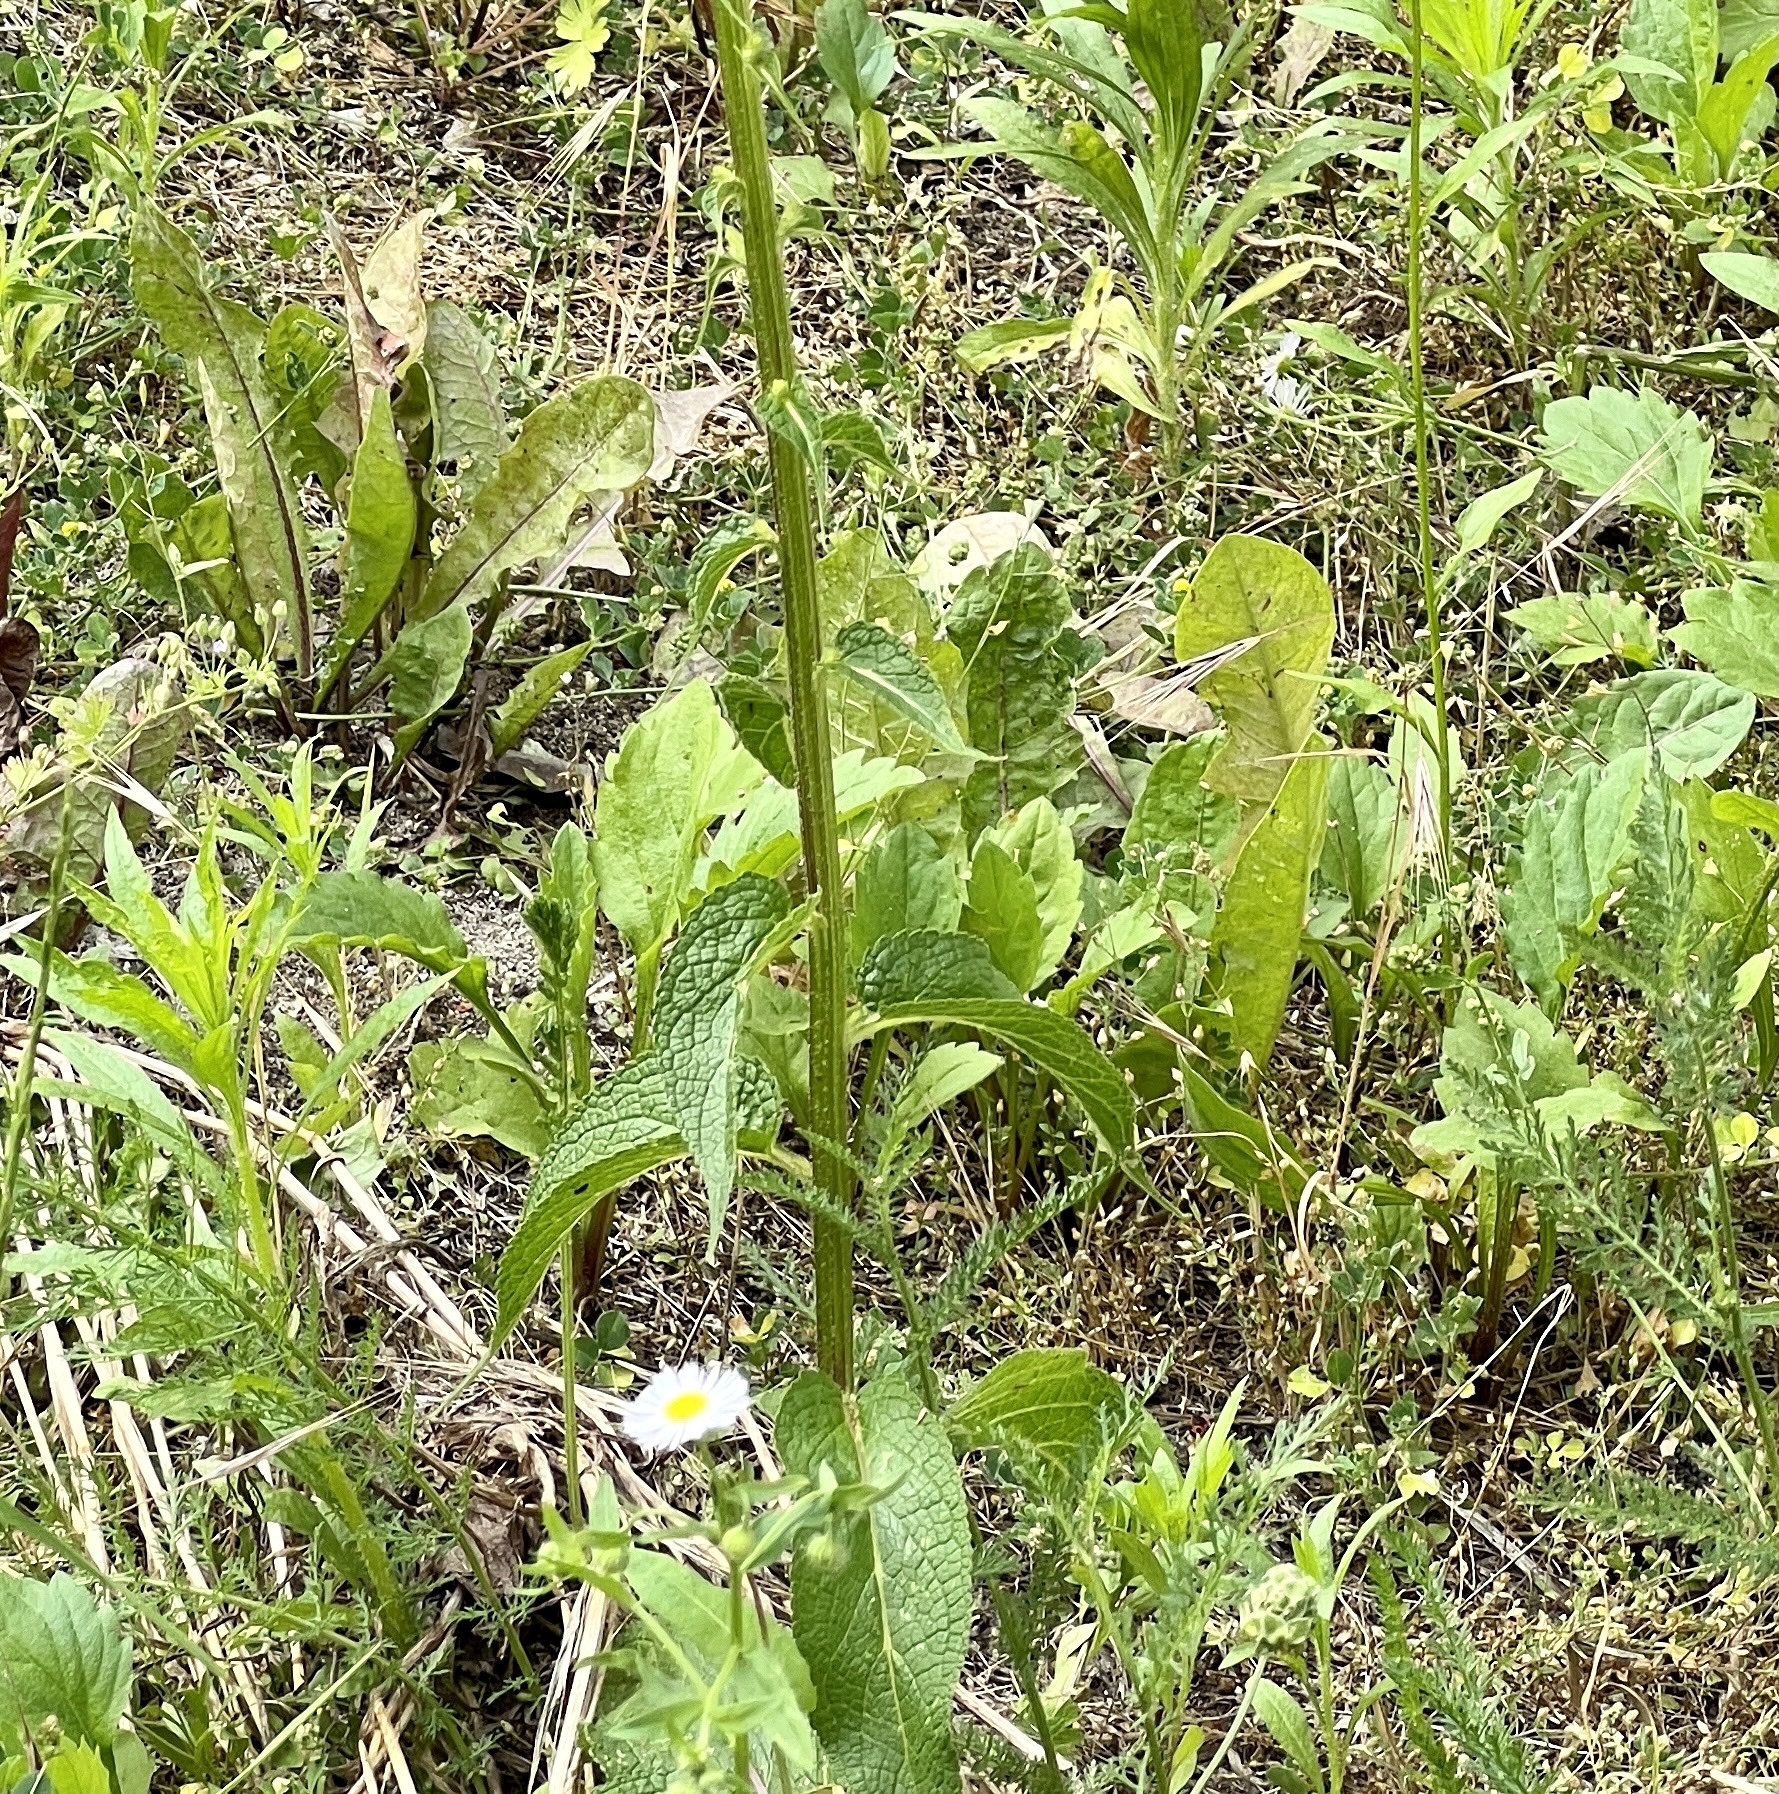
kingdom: Plantae
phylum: Tracheophyta
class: Magnoliopsida
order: Lamiales
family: Scrophulariaceae
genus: Verbascum
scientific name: Verbascum nigrum
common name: Dark mullein
